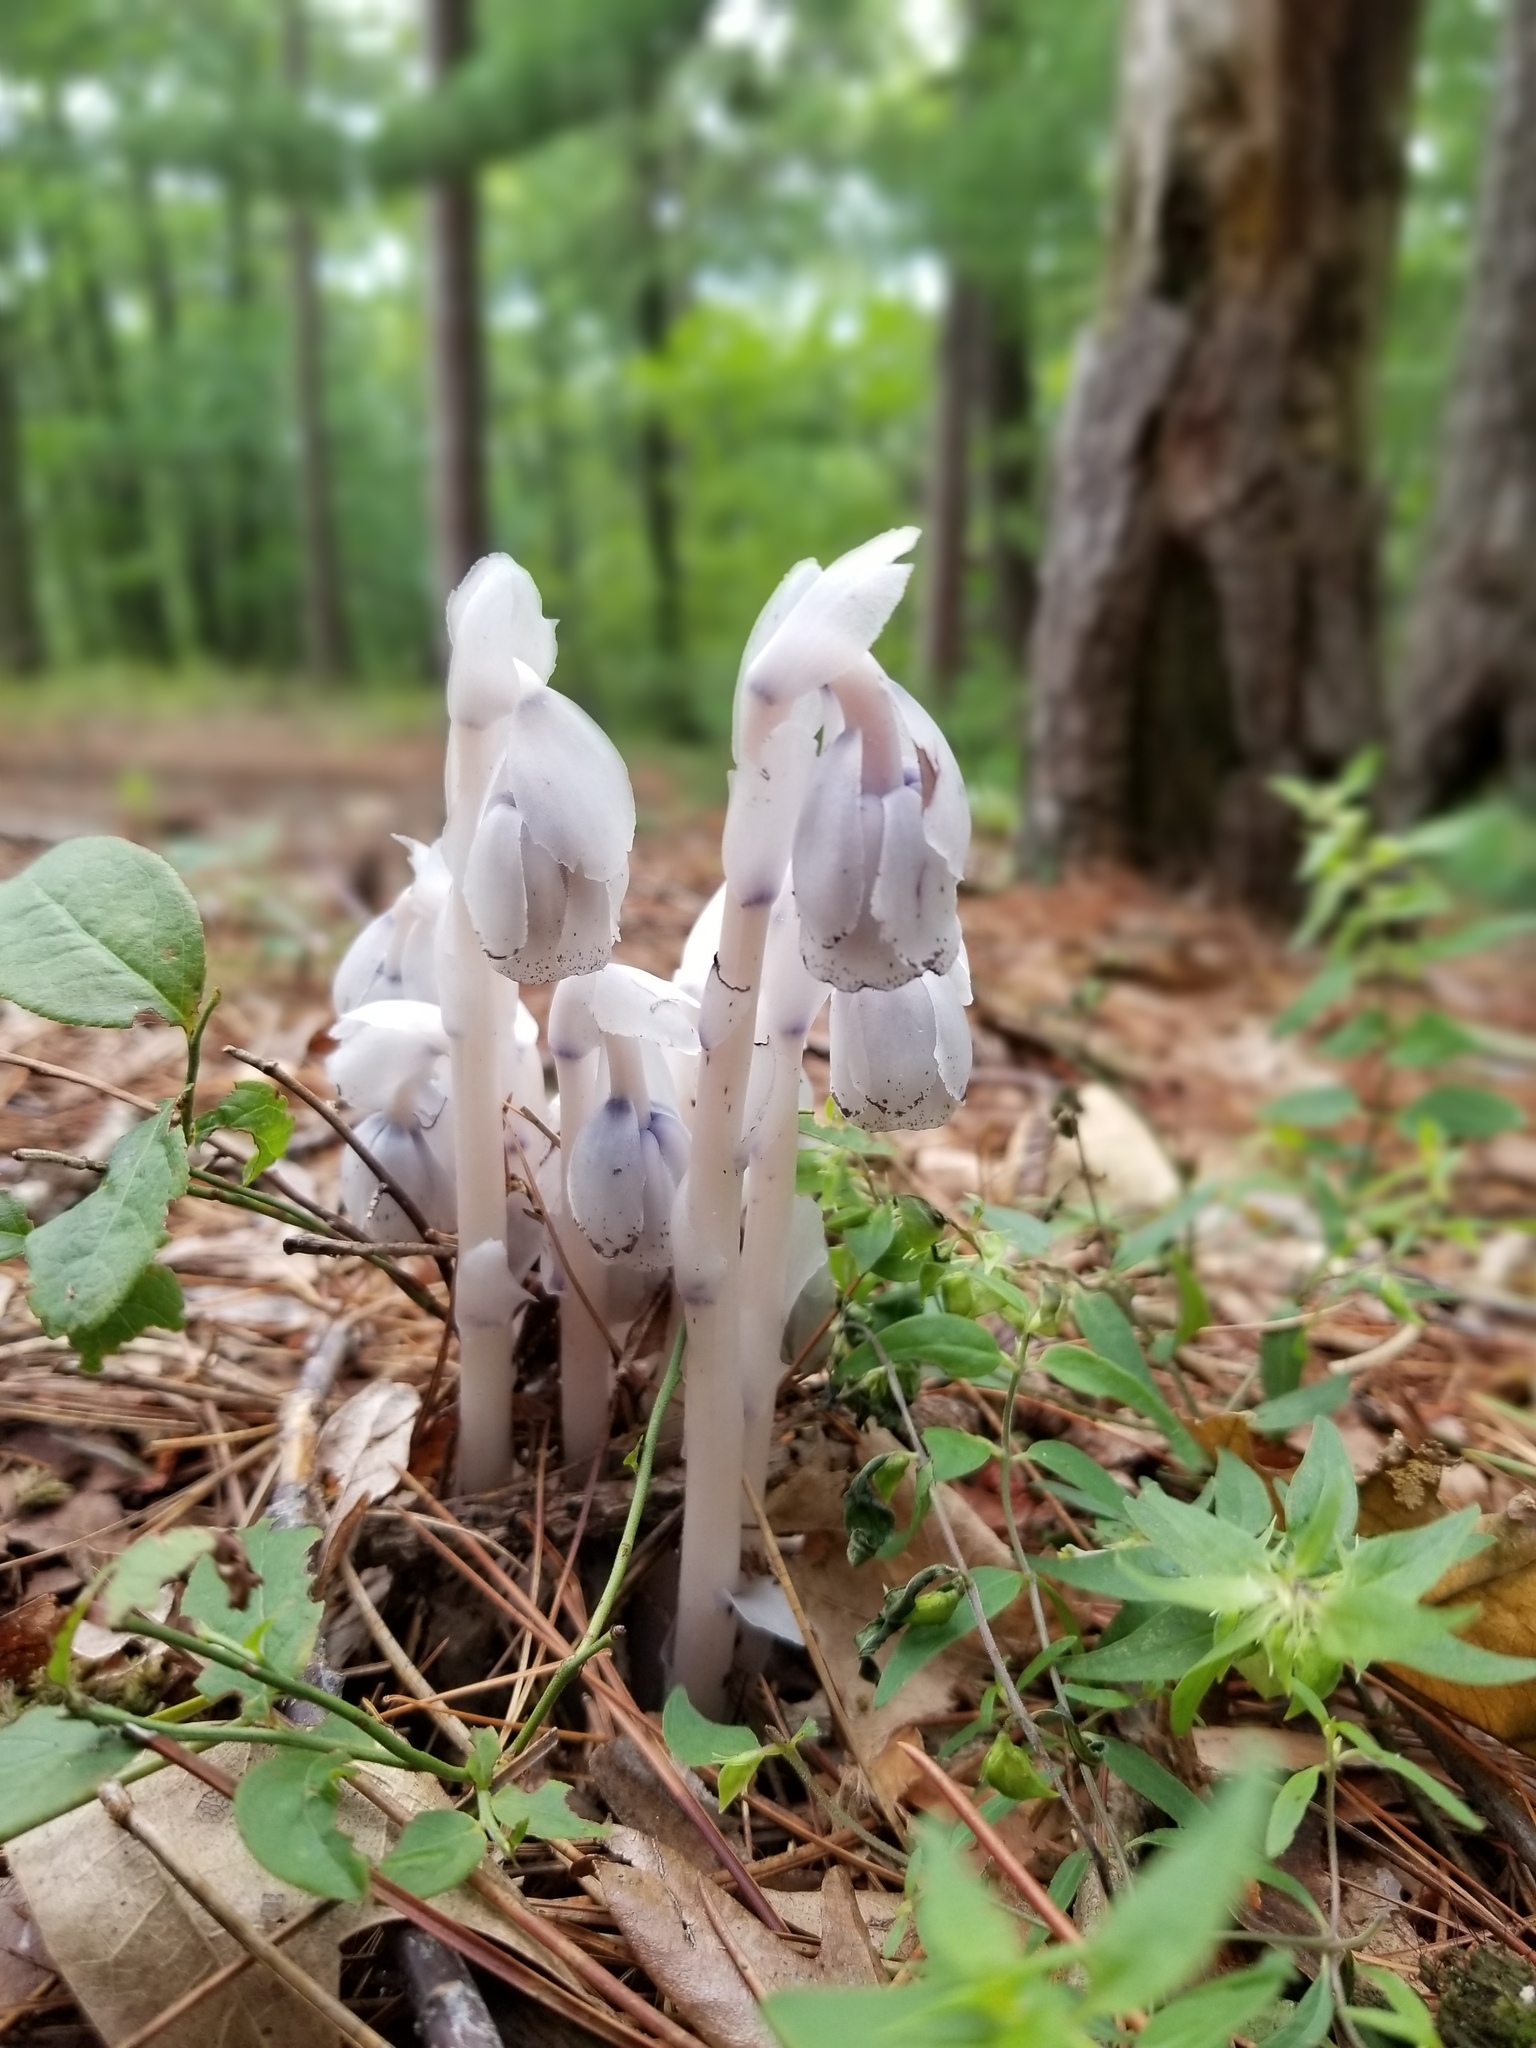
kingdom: Plantae
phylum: Tracheophyta
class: Magnoliopsida
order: Ericales
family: Ericaceae
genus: Monotropa
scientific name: Monotropa uniflora
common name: Convulsion root
